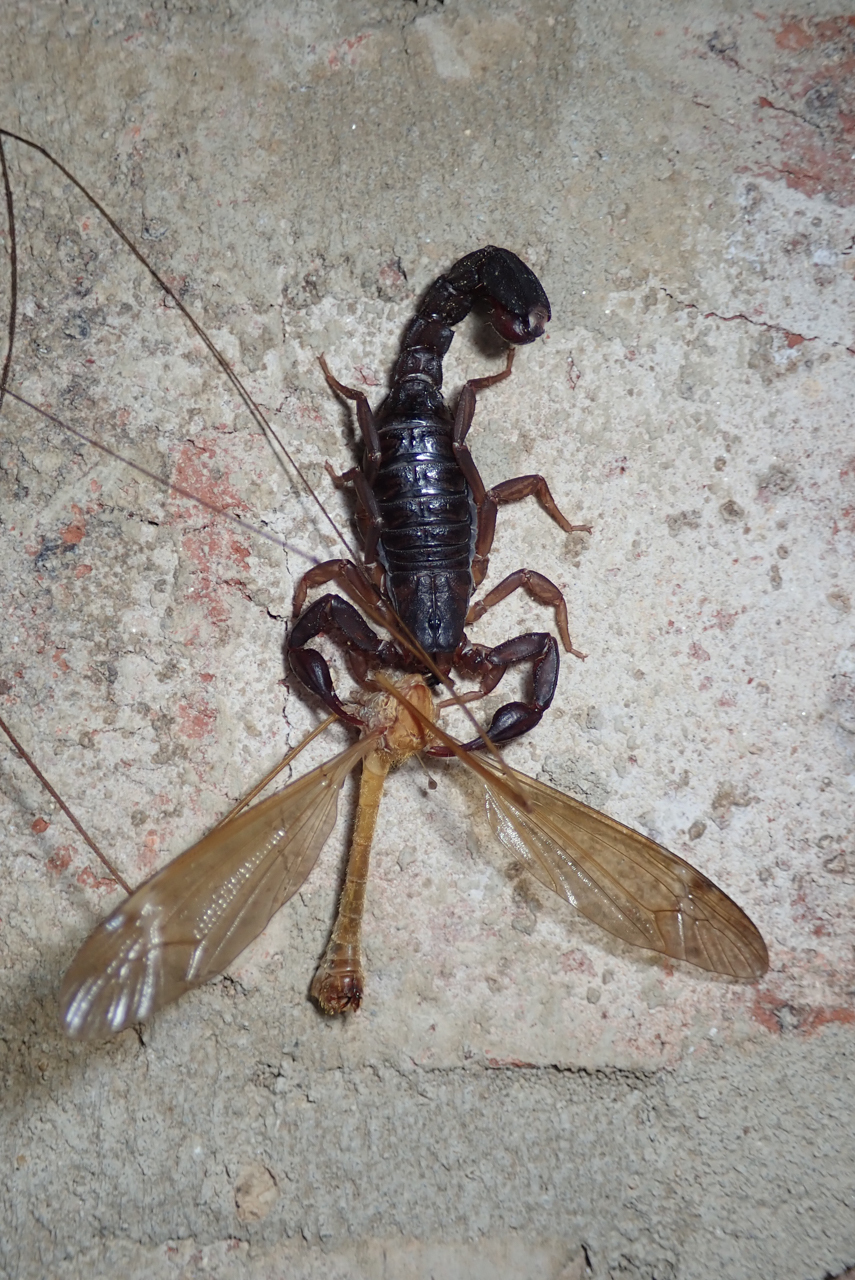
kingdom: Animalia
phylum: Arthropoda
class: Arachnida
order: Scorpiones
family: Vaejovidae
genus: Vaejovis
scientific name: Vaejovis carolinianus
